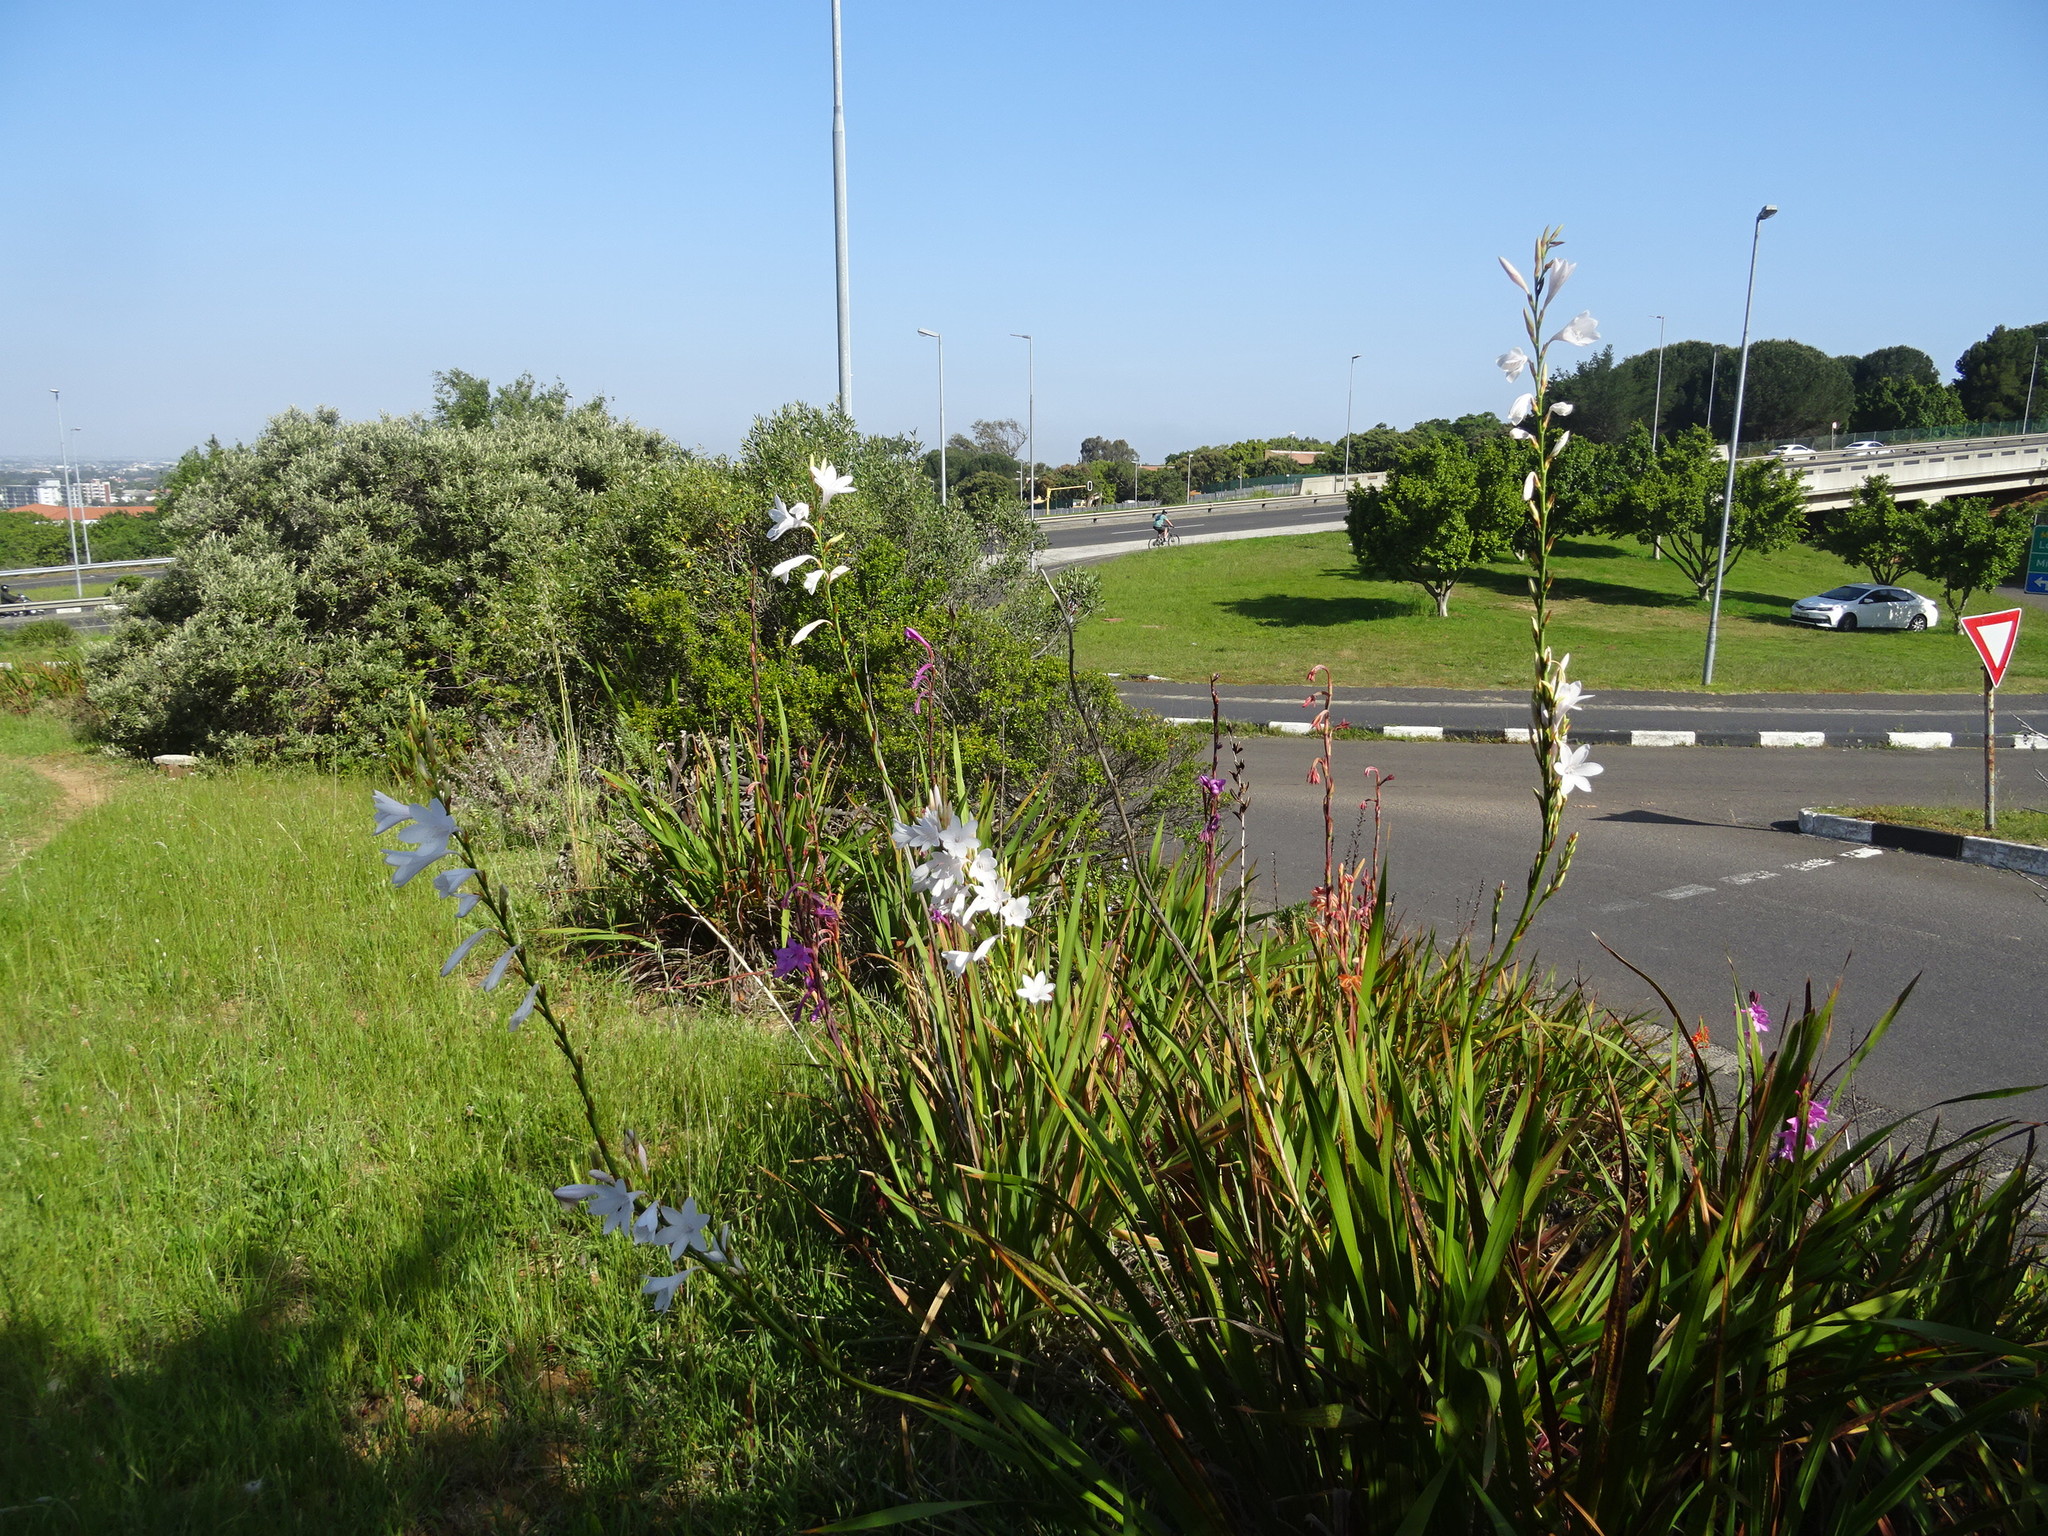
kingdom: Plantae
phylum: Tracheophyta
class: Liliopsida
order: Asparagales
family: Iridaceae
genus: Watsonia
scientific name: Watsonia borbonica
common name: Bugle-lily
